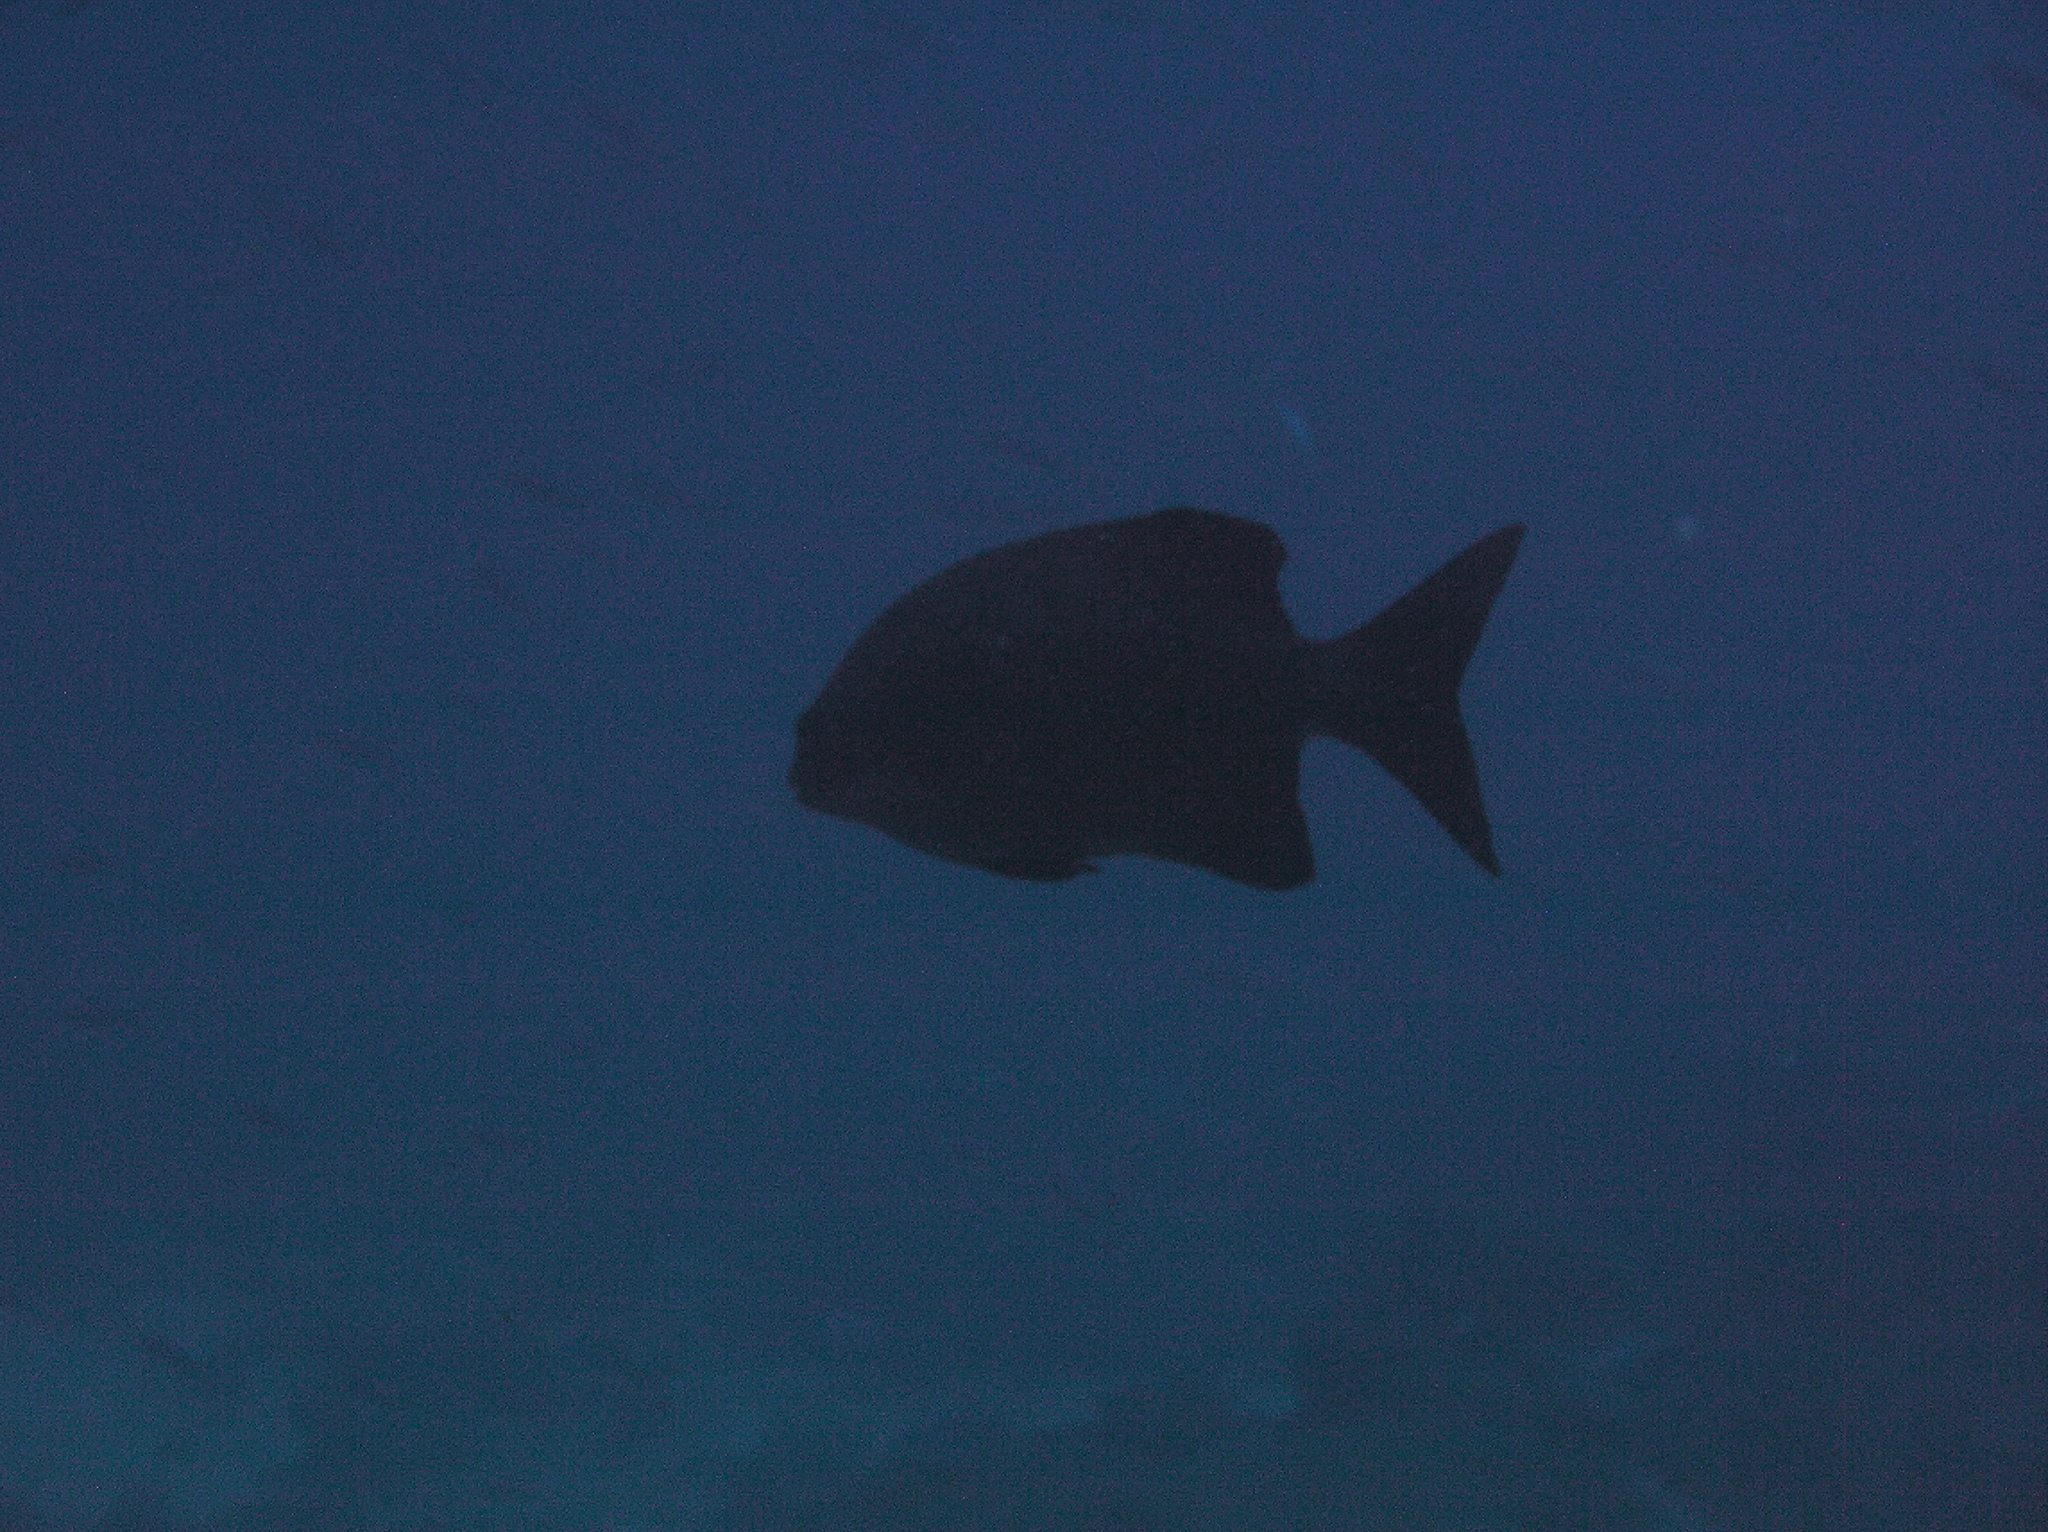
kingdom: Animalia
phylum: Chordata
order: Perciformes
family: Kyphosidae
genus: Kyphosus
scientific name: Kyphosus cinerascens
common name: Topsail drummer
